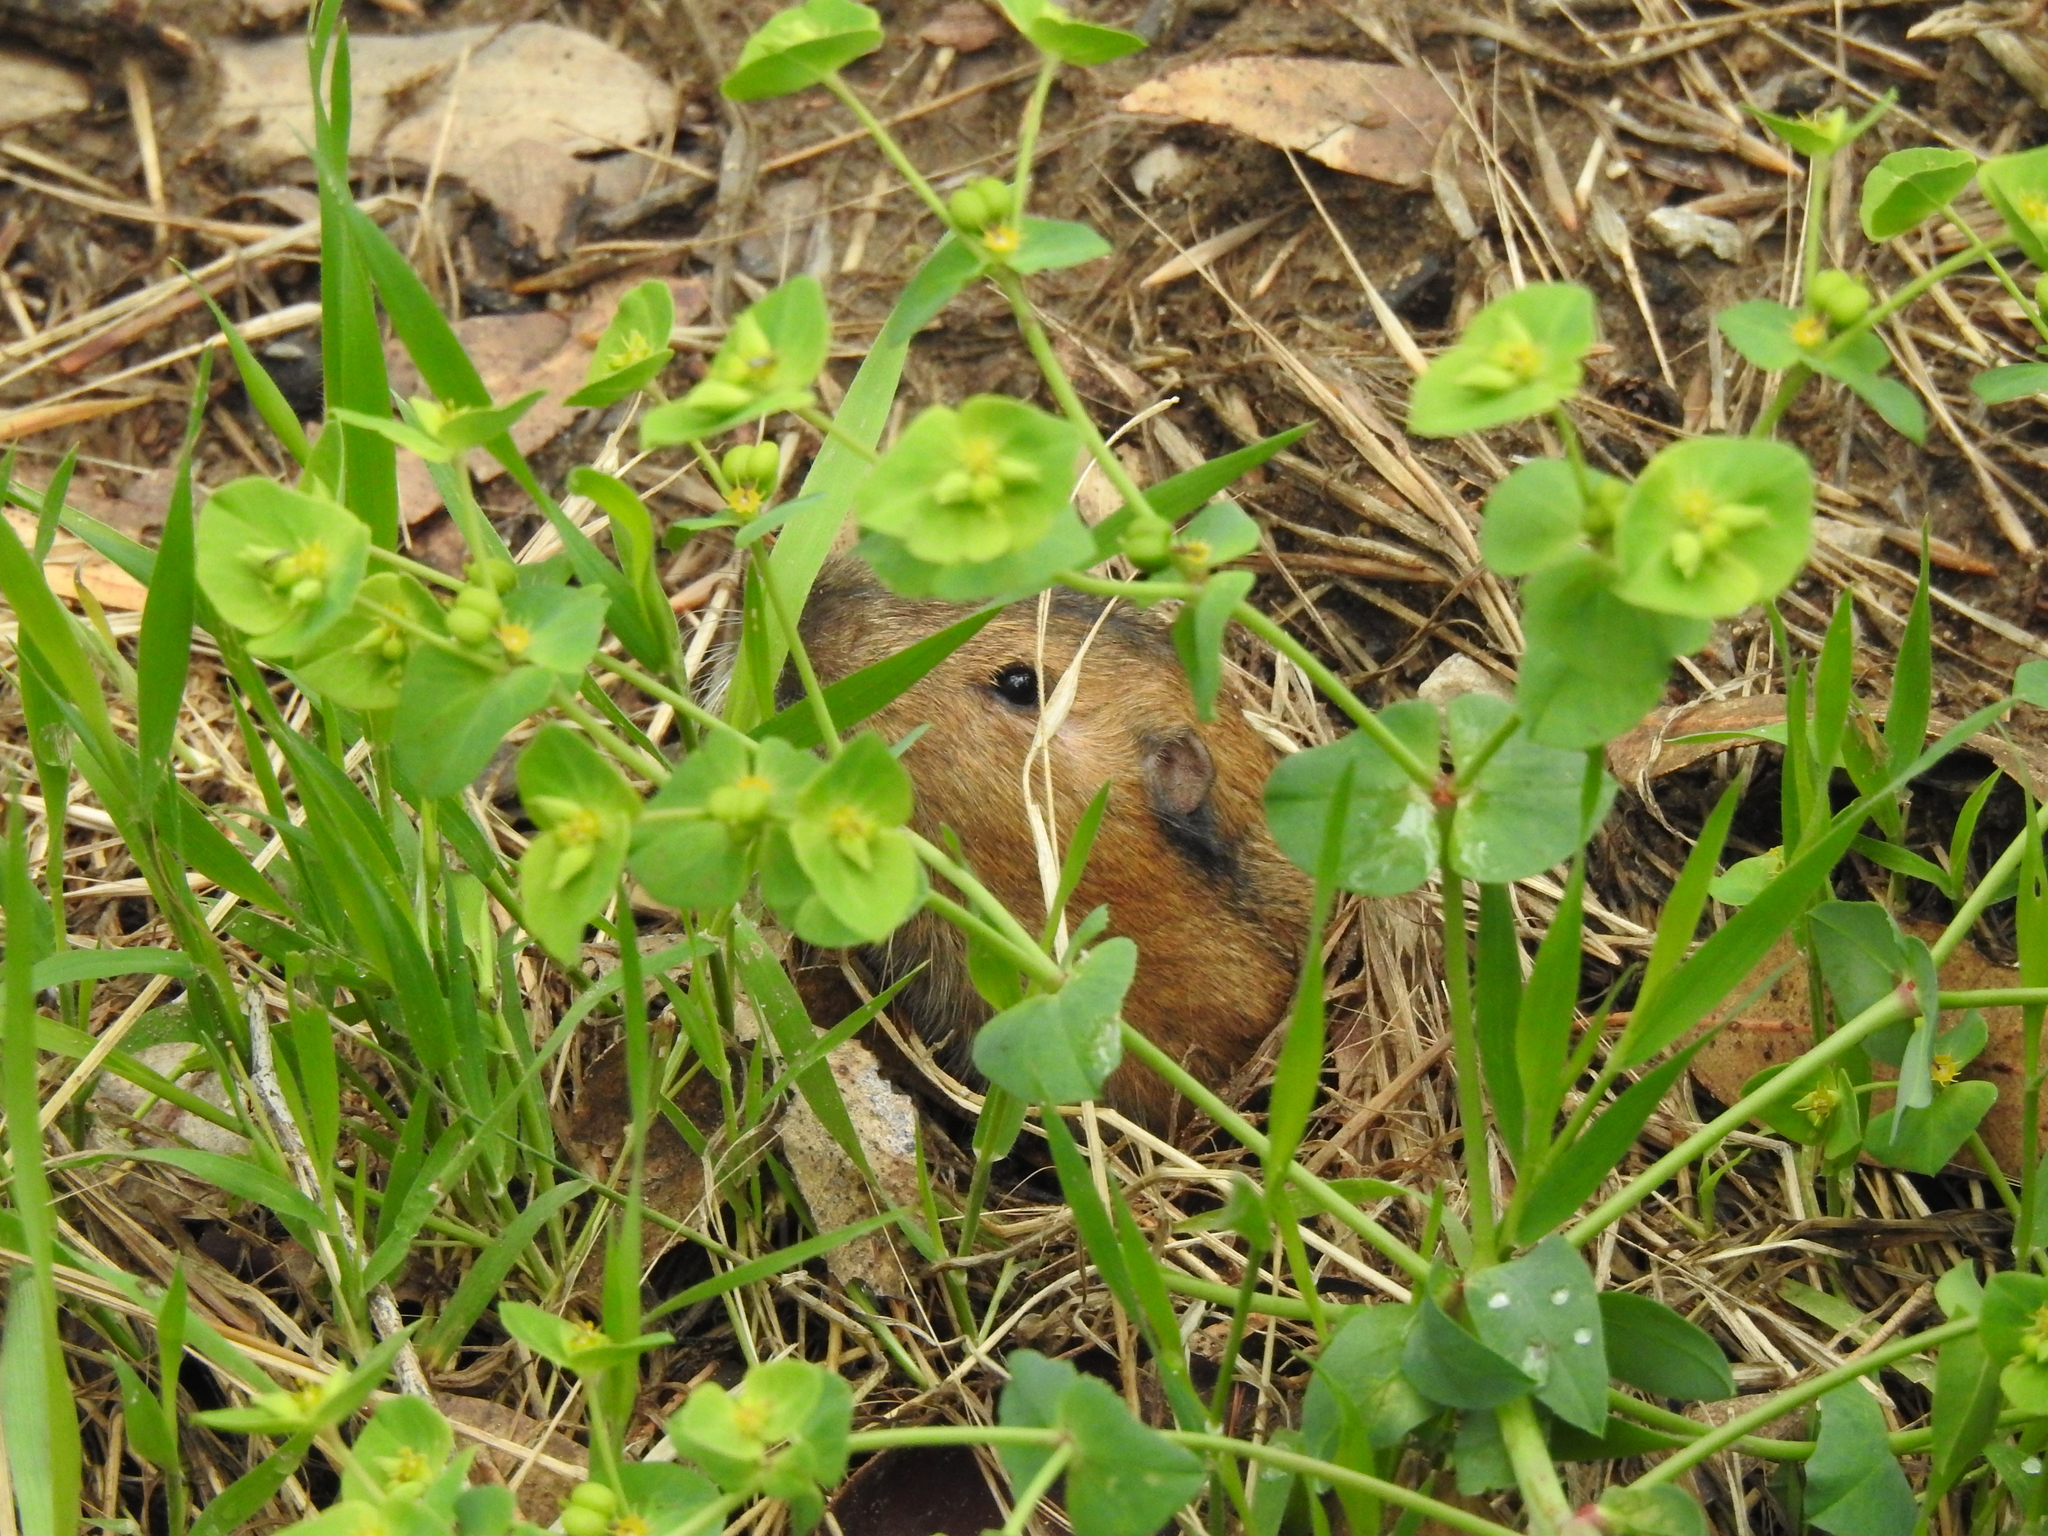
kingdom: Animalia
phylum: Chordata
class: Mammalia
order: Rodentia
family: Geomyidae
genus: Thomomys
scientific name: Thomomys bottae
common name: Botta's pocket gopher
